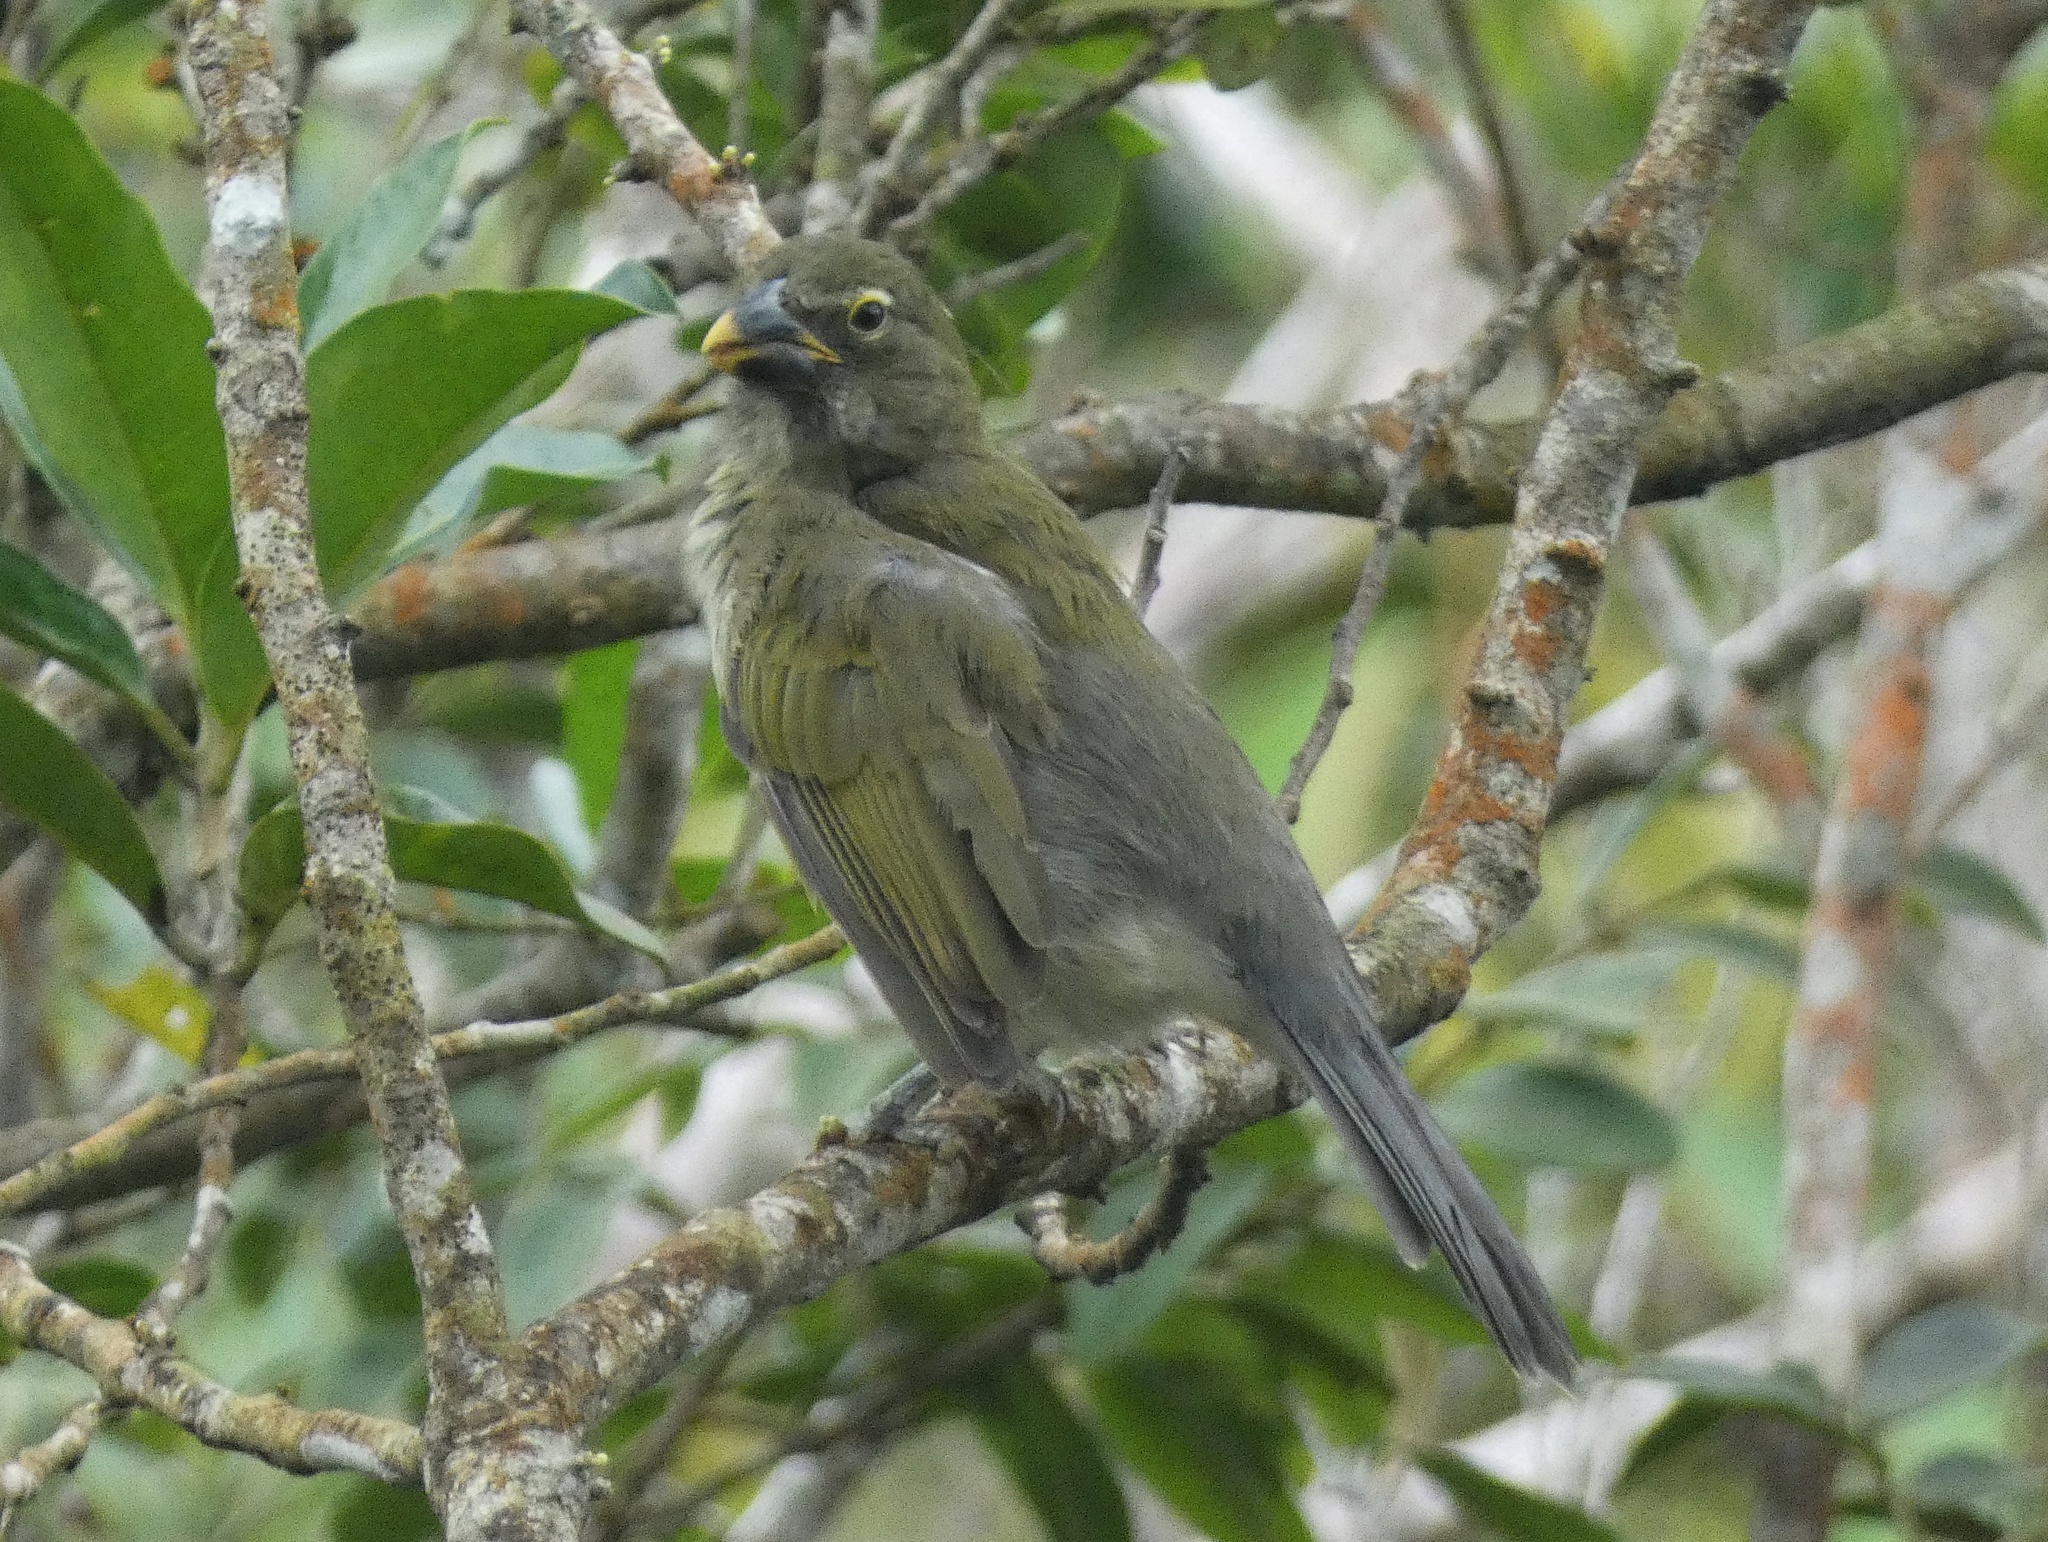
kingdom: Animalia
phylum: Chordata
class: Aves
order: Passeriformes
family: Thraupidae
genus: Saltator
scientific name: Saltator striatipectus
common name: Streaked saltator
